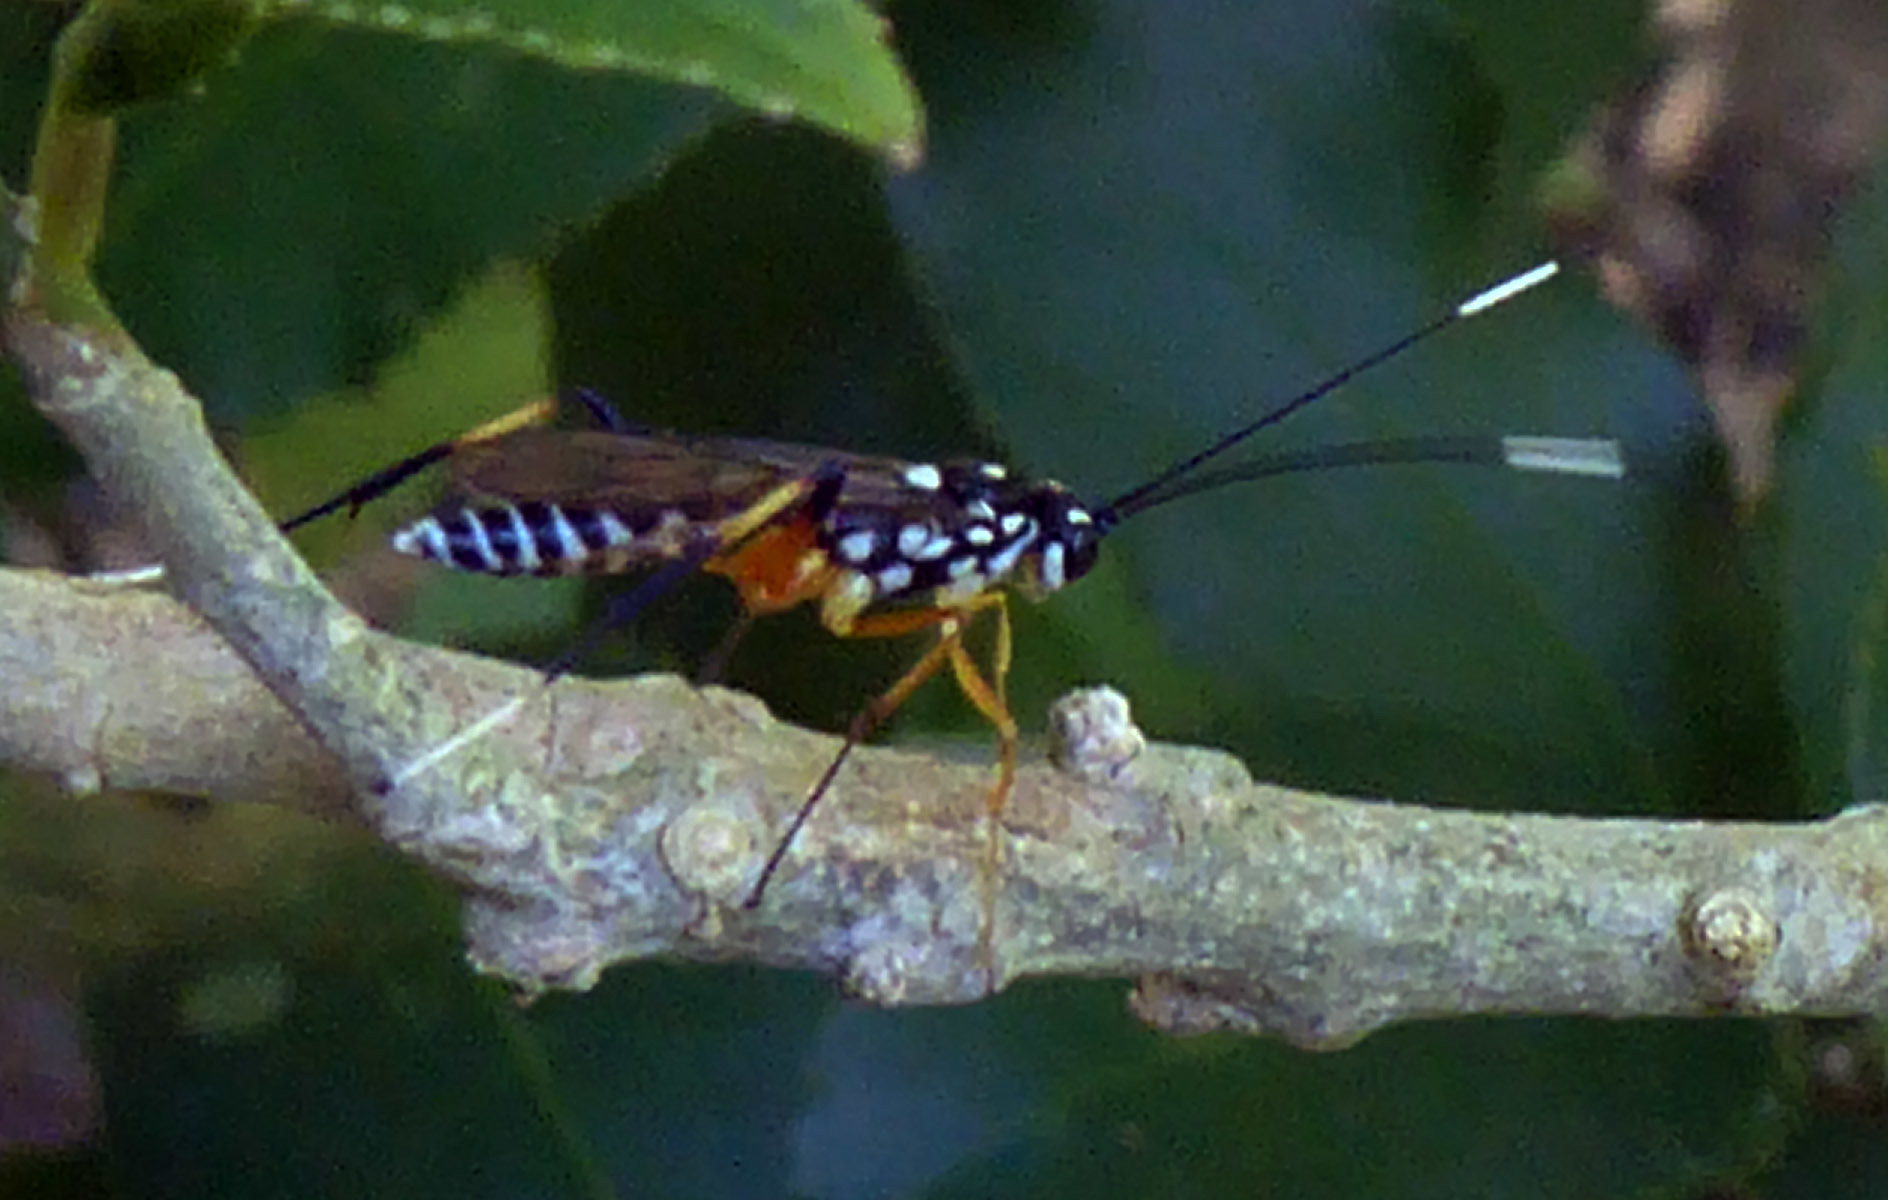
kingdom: Animalia
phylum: Arthropoda
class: Insecta
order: Hymenoptera
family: Ichneumonidae
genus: Xanthocryptus
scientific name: Xanthocryptus novozealandicus
